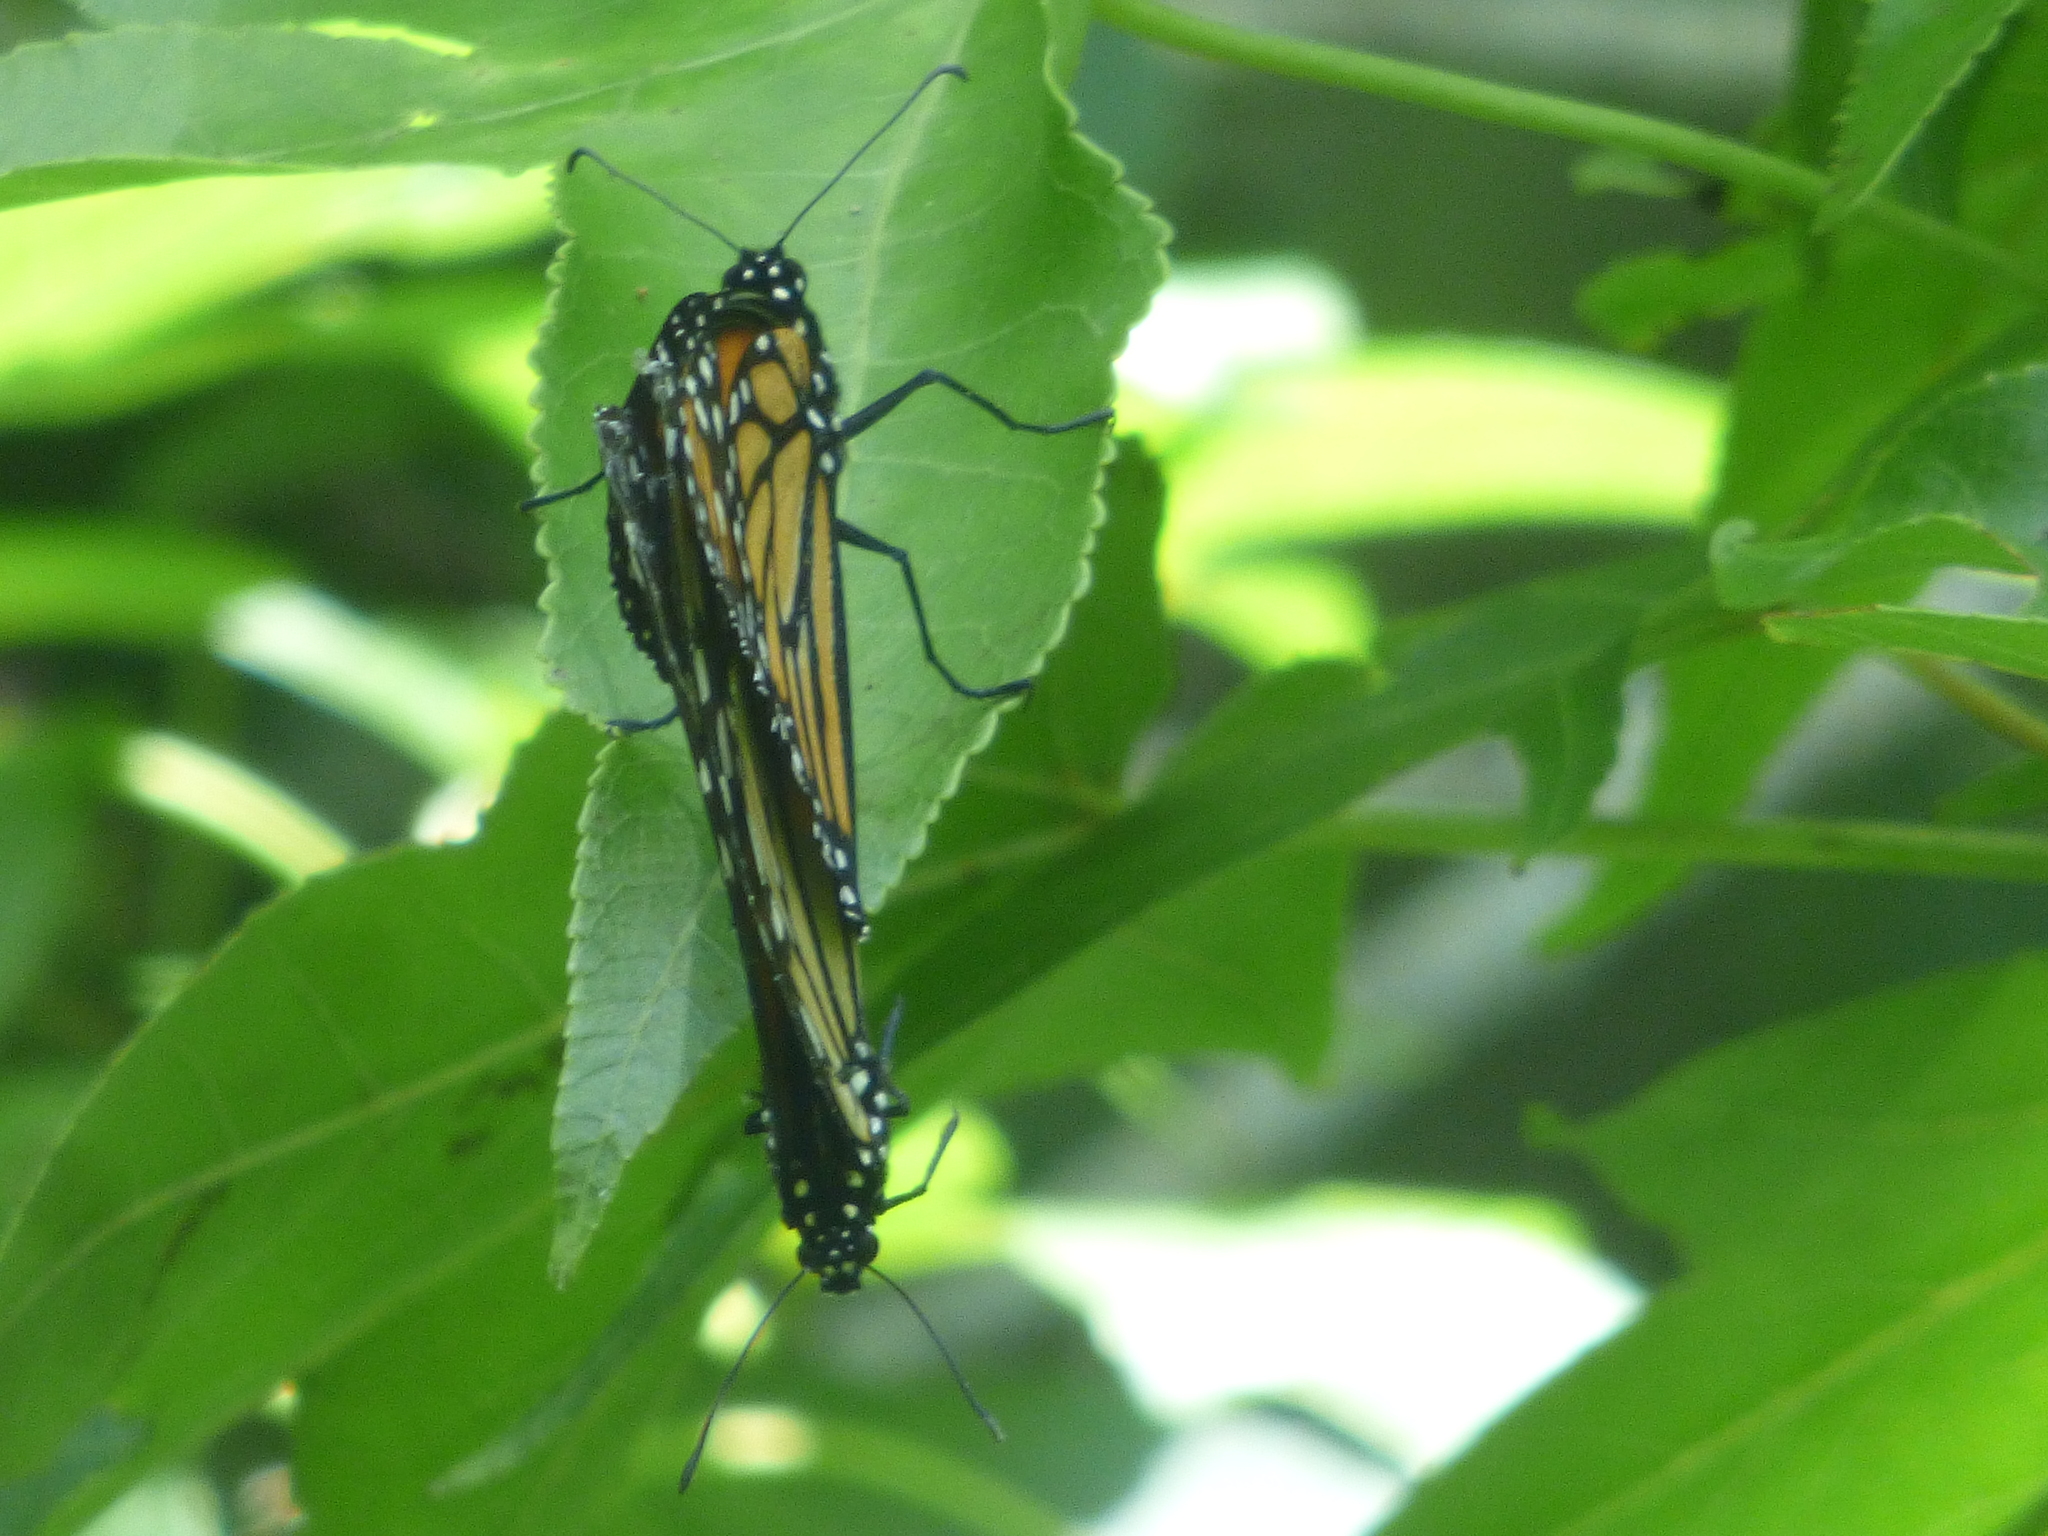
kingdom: Animalia
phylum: Arthropoda
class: Insecta
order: Lepidoptera
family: Nymphalidae
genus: Danaus
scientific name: Danaus plexippus
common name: Monarch
